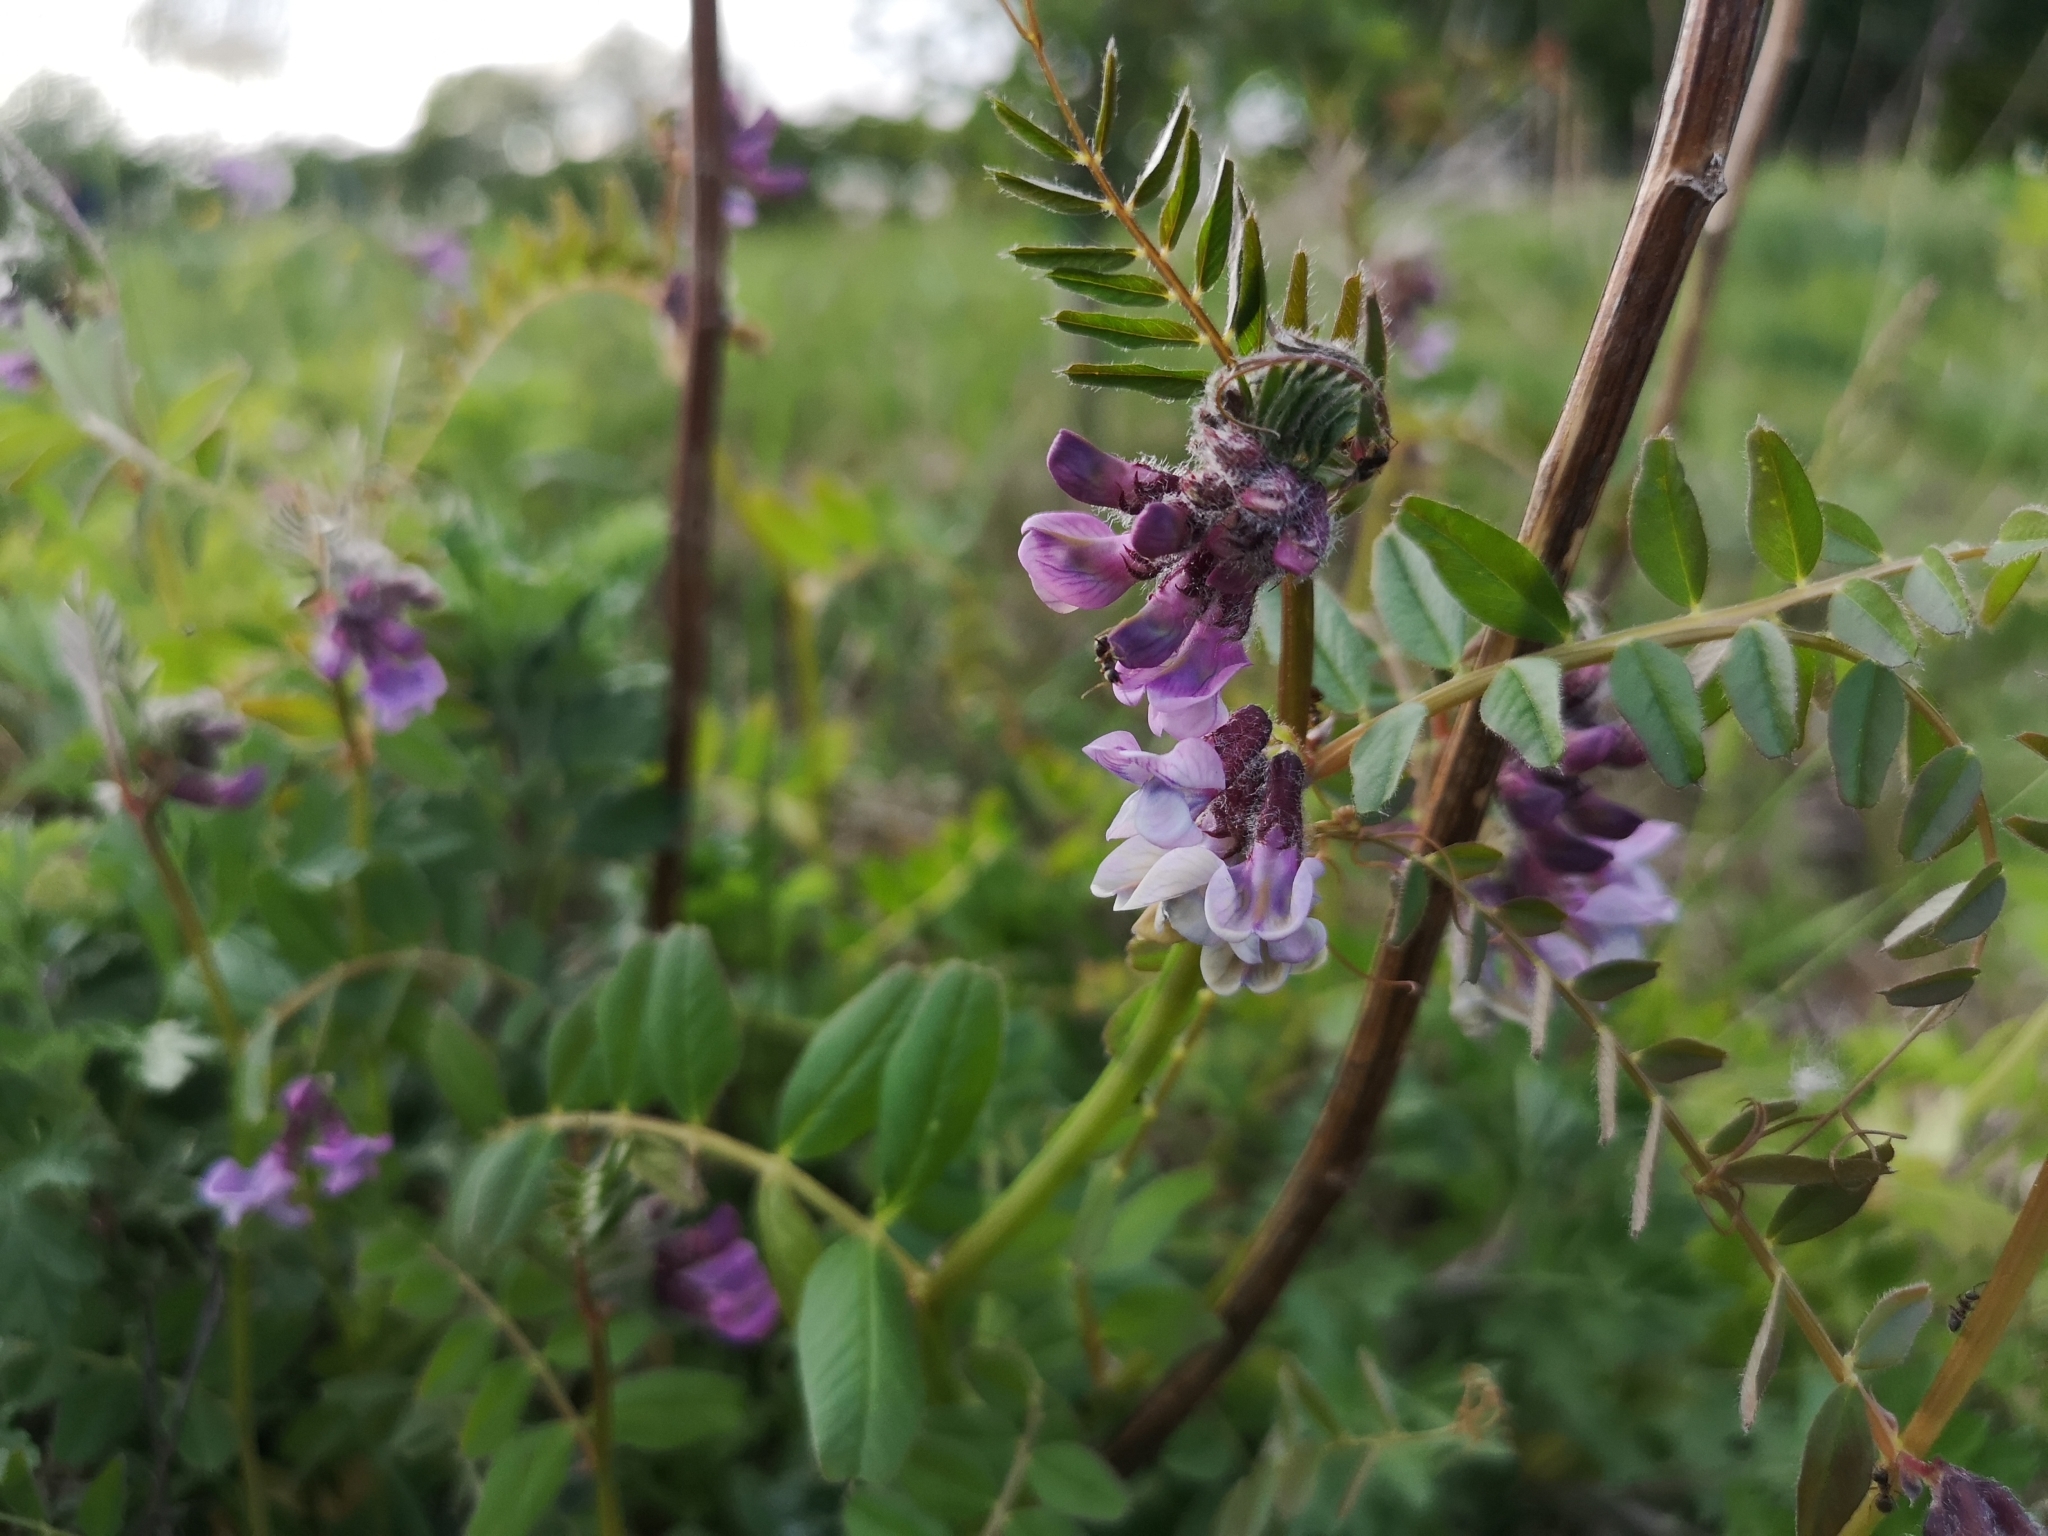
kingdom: Plantae
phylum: Tracheophyta
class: Magnoliopsida
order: Fabales
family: Fabaceae
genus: Vicia
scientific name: Vicia sepium
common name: Bush vetch
